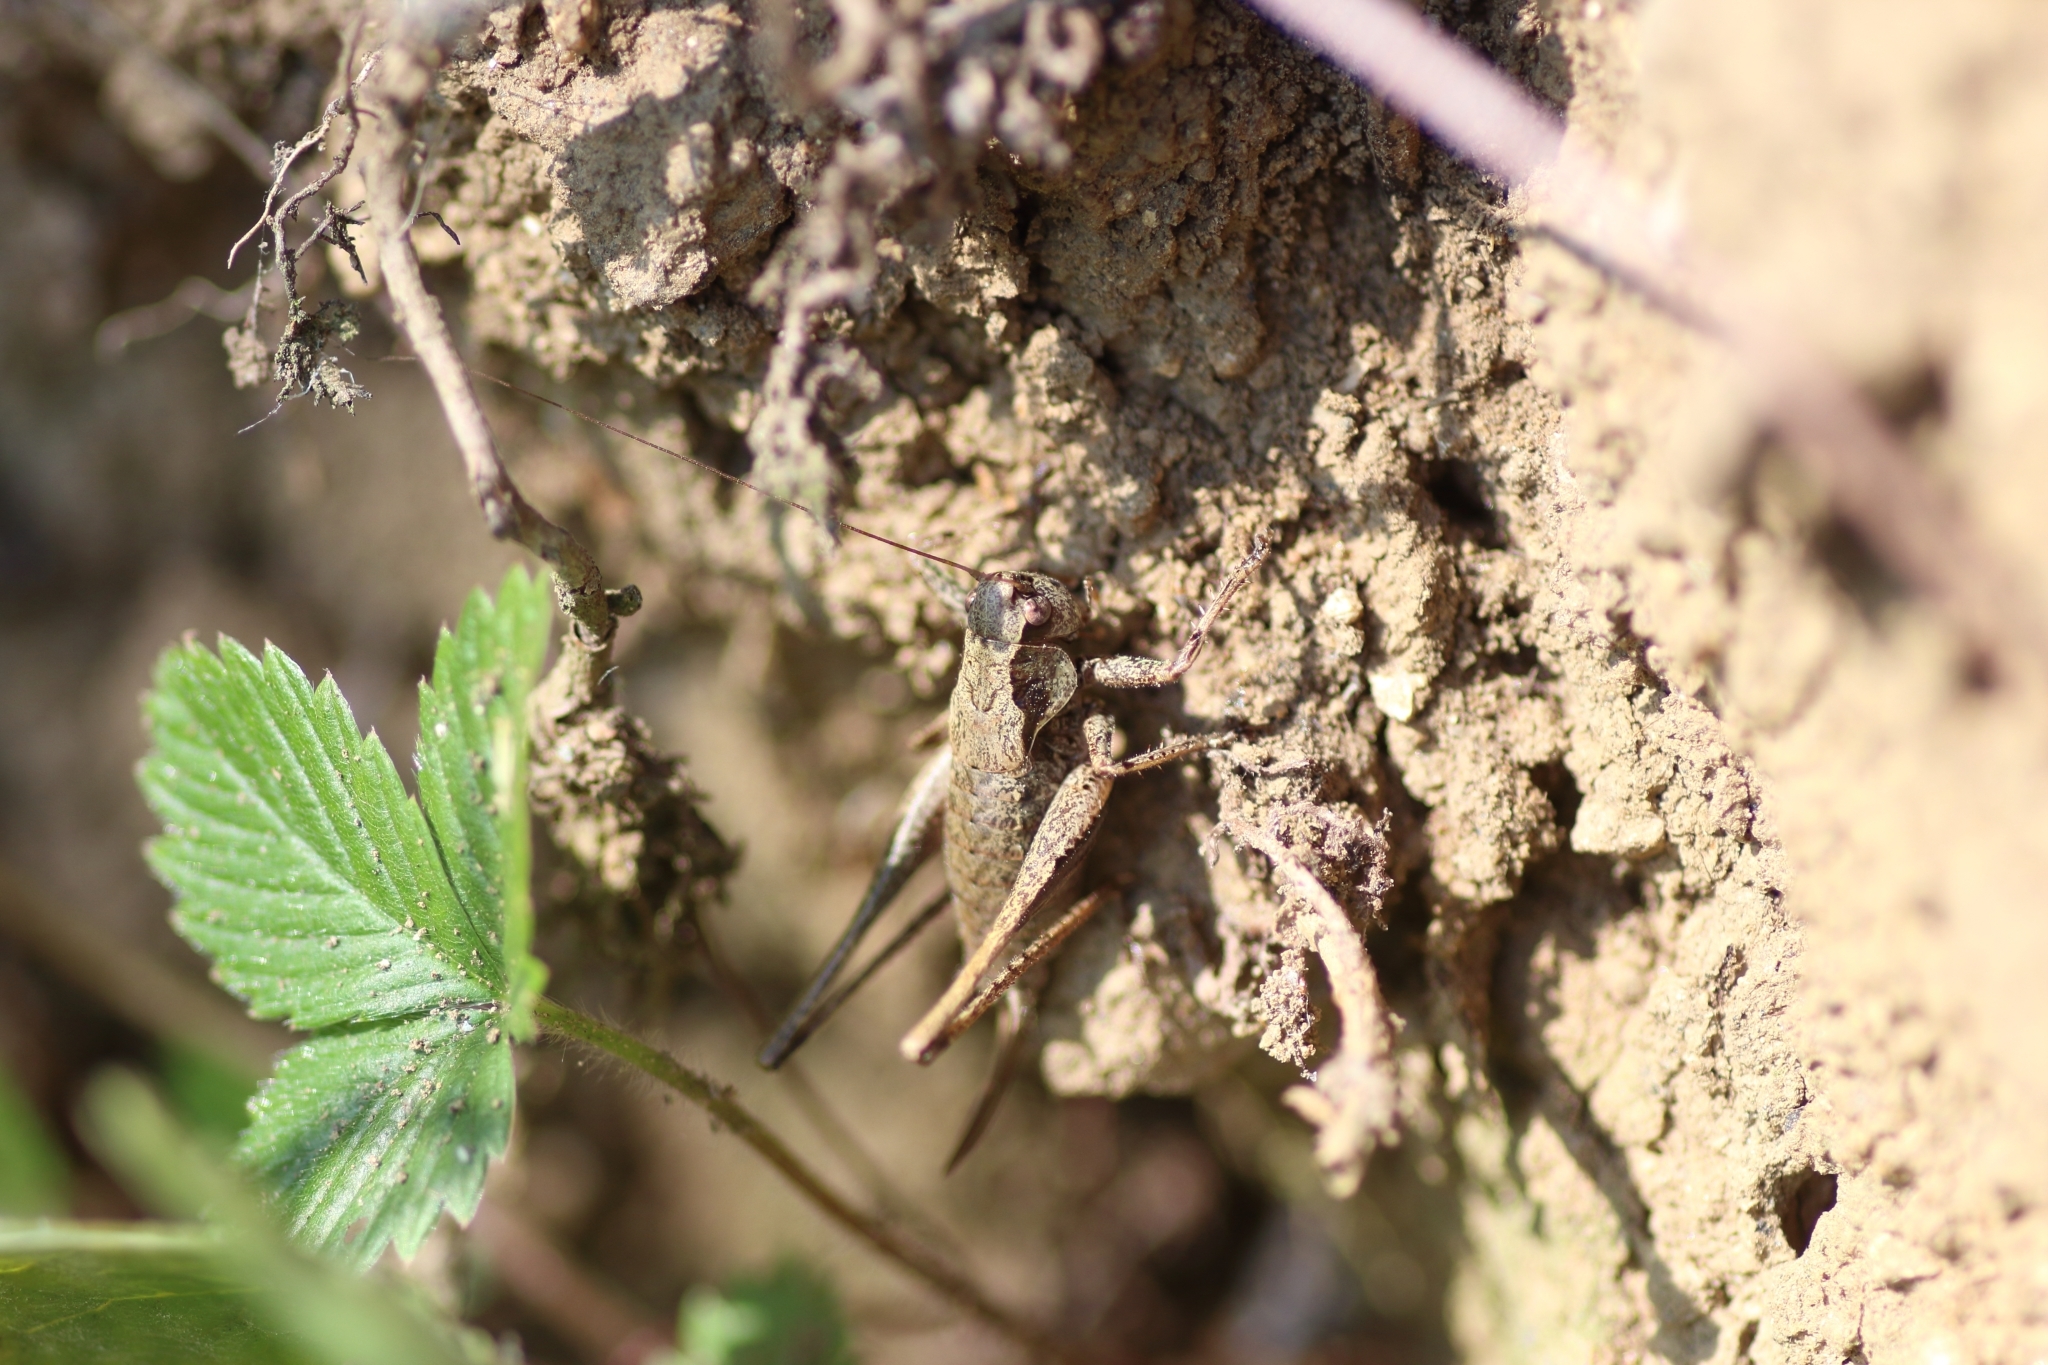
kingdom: Animalia
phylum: Arthropoda
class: Insecta
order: Orthoptera
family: Tettigoniidae
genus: Pholidoptera
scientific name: Pholidoptera griseoaptera
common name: Dark bush-cricket
